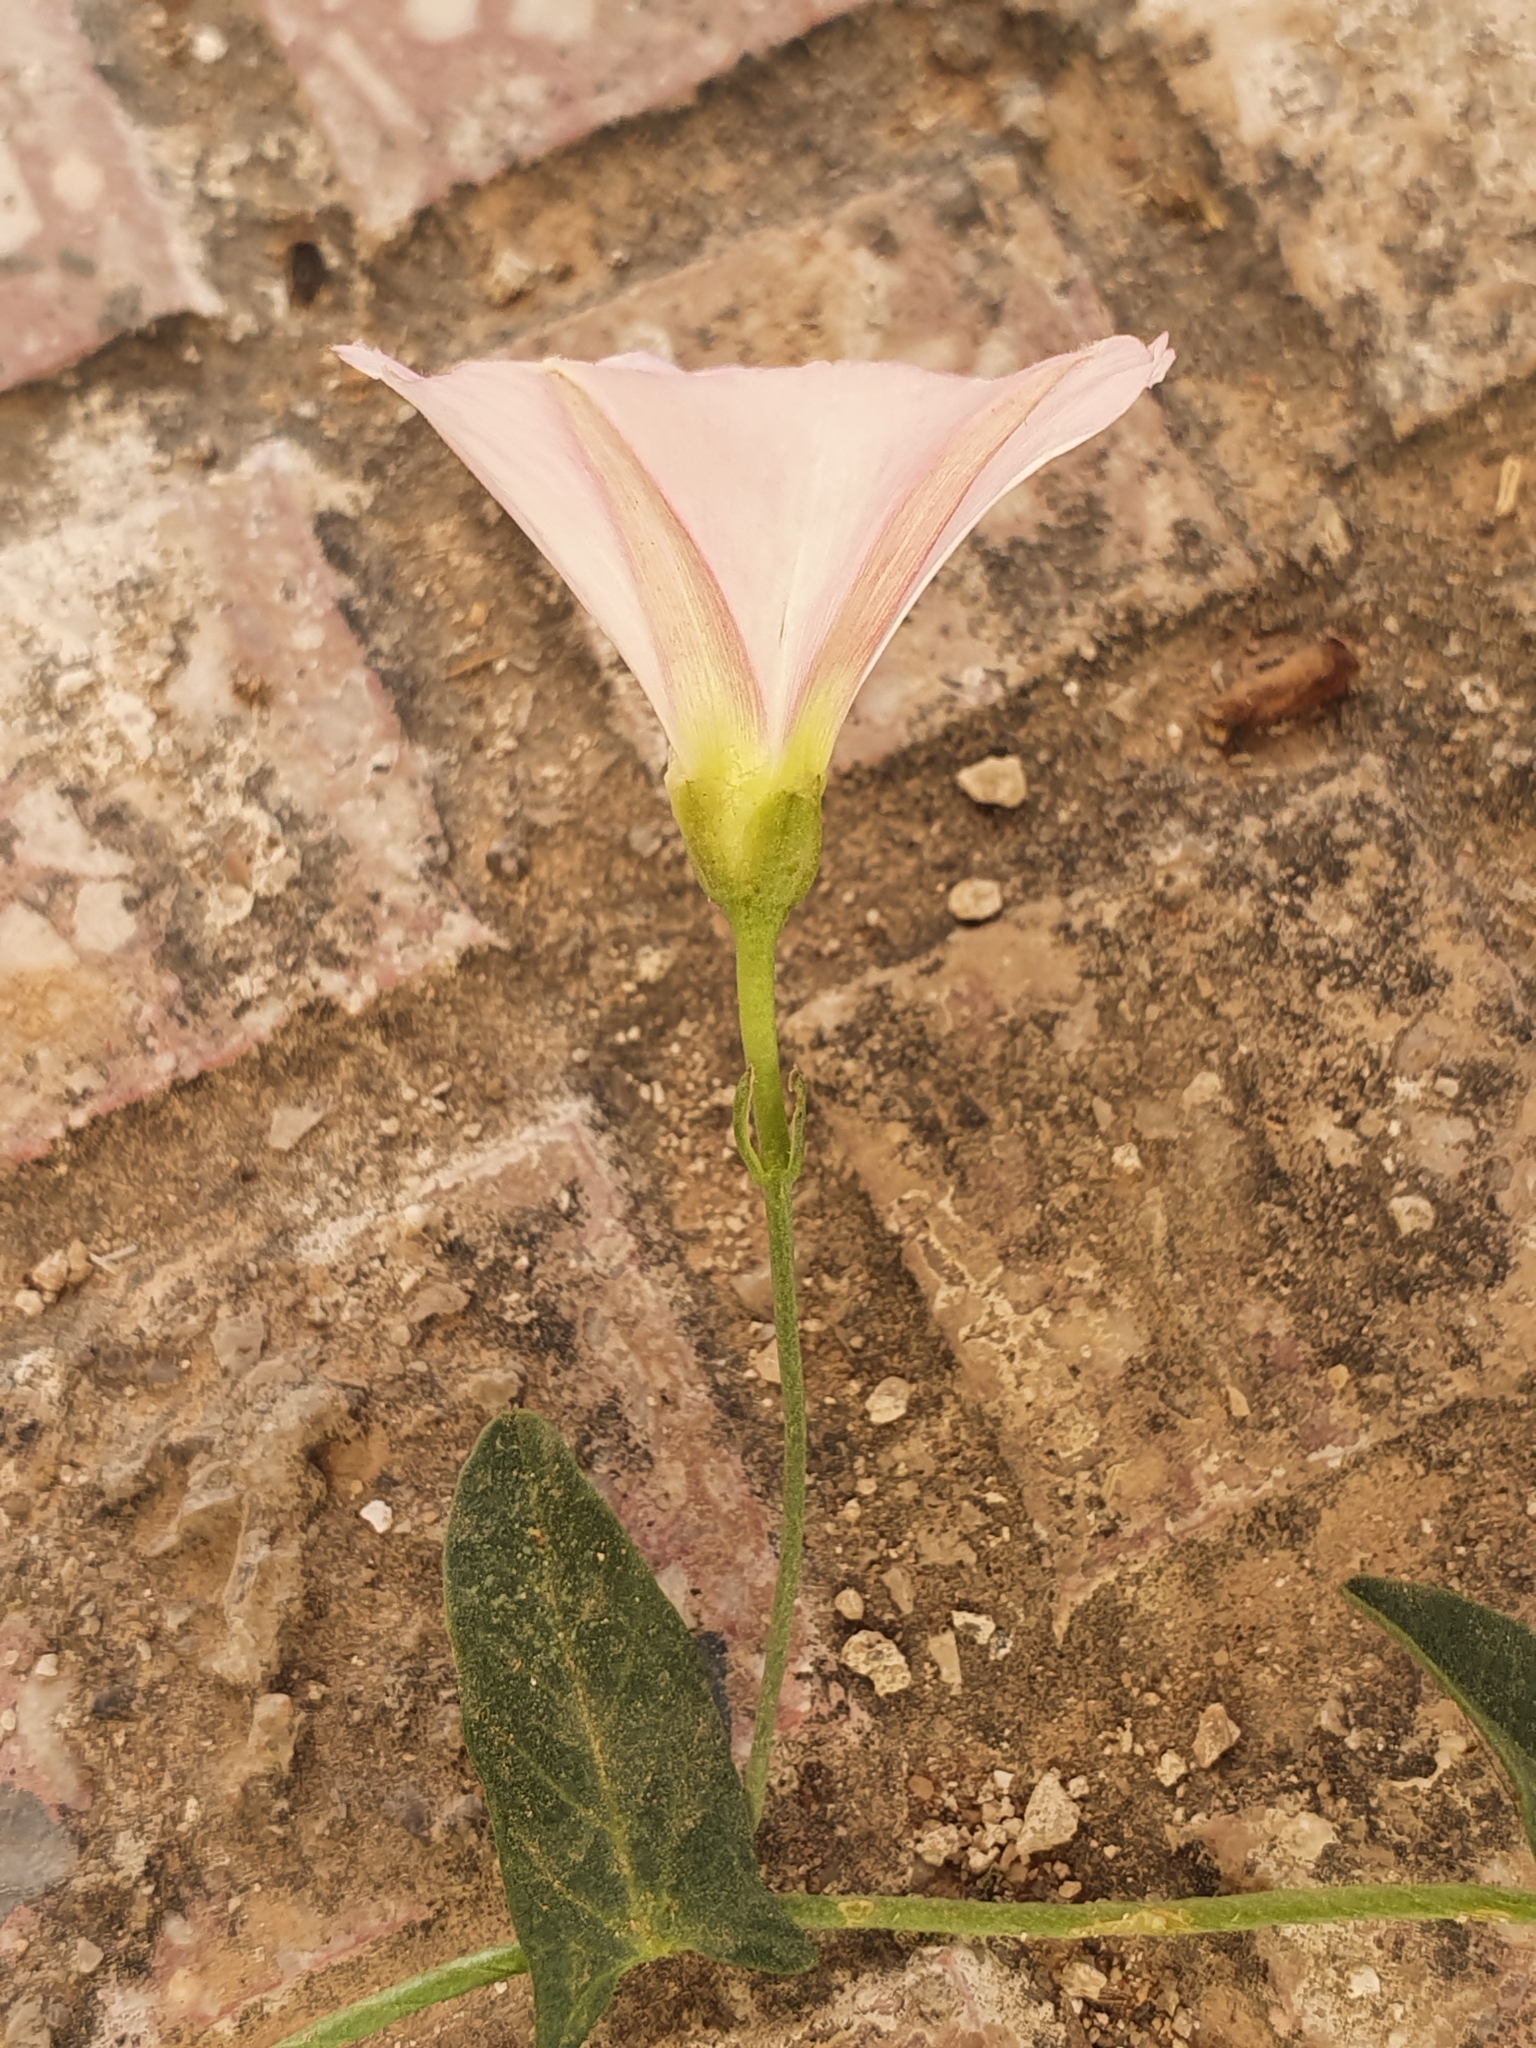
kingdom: Plantae
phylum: Tracheophyta
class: Magnoliopsida
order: Solanales
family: Convolvulaceae
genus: Convolvulus
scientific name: Convolvulus arvensis
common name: Field bindweed
